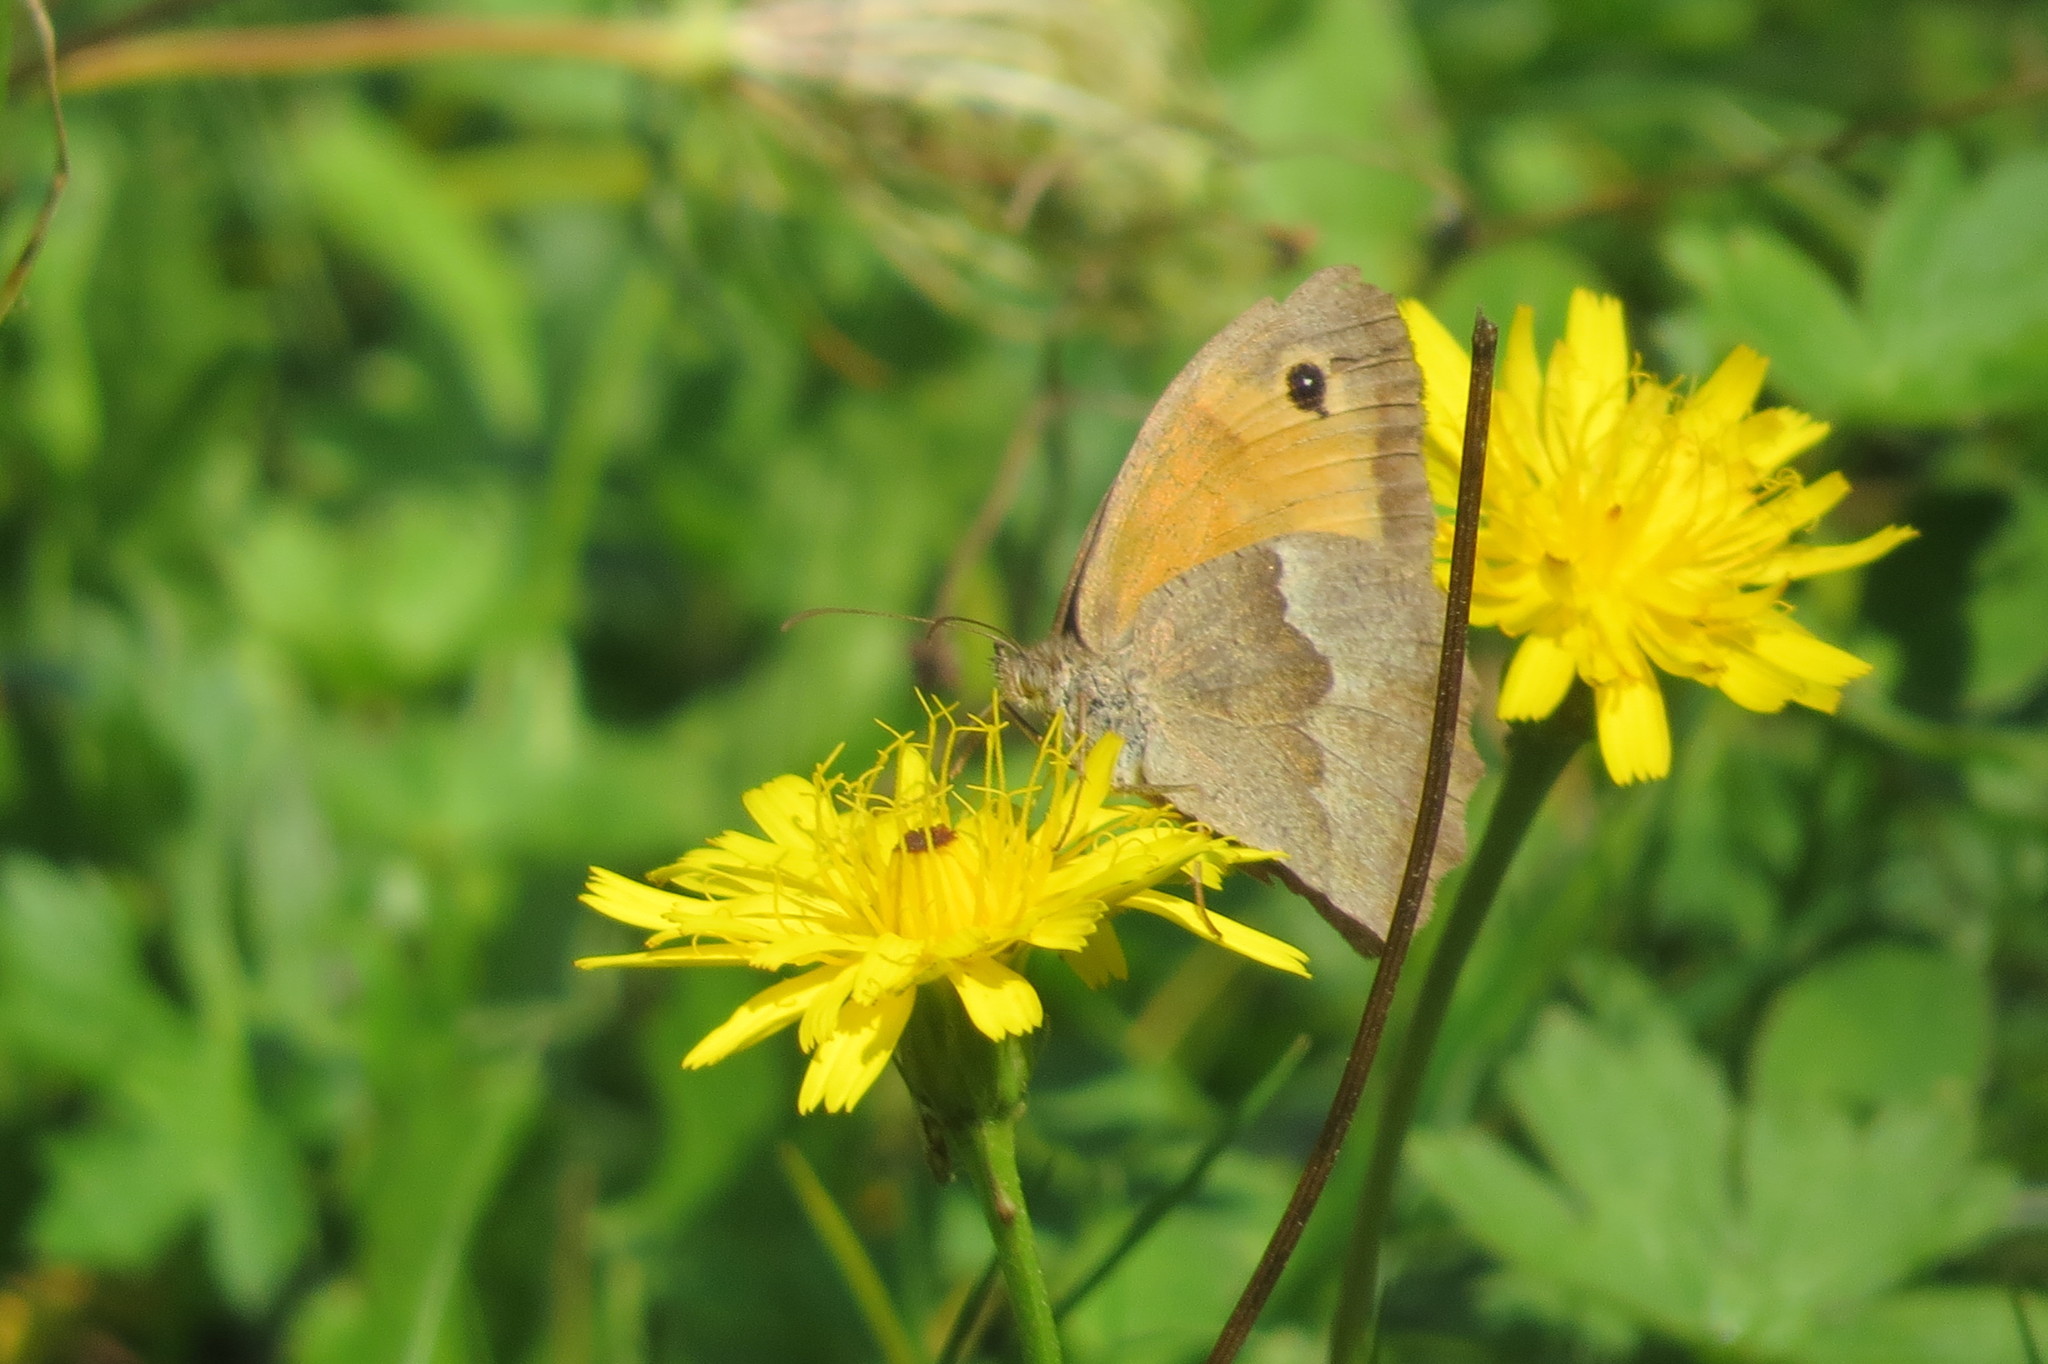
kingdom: Animalia
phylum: Arthropoda
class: Insecta
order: Lepidoptera
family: Nymphalidae
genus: Maniola
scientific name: Maniola jurtina
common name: Meadow brown
